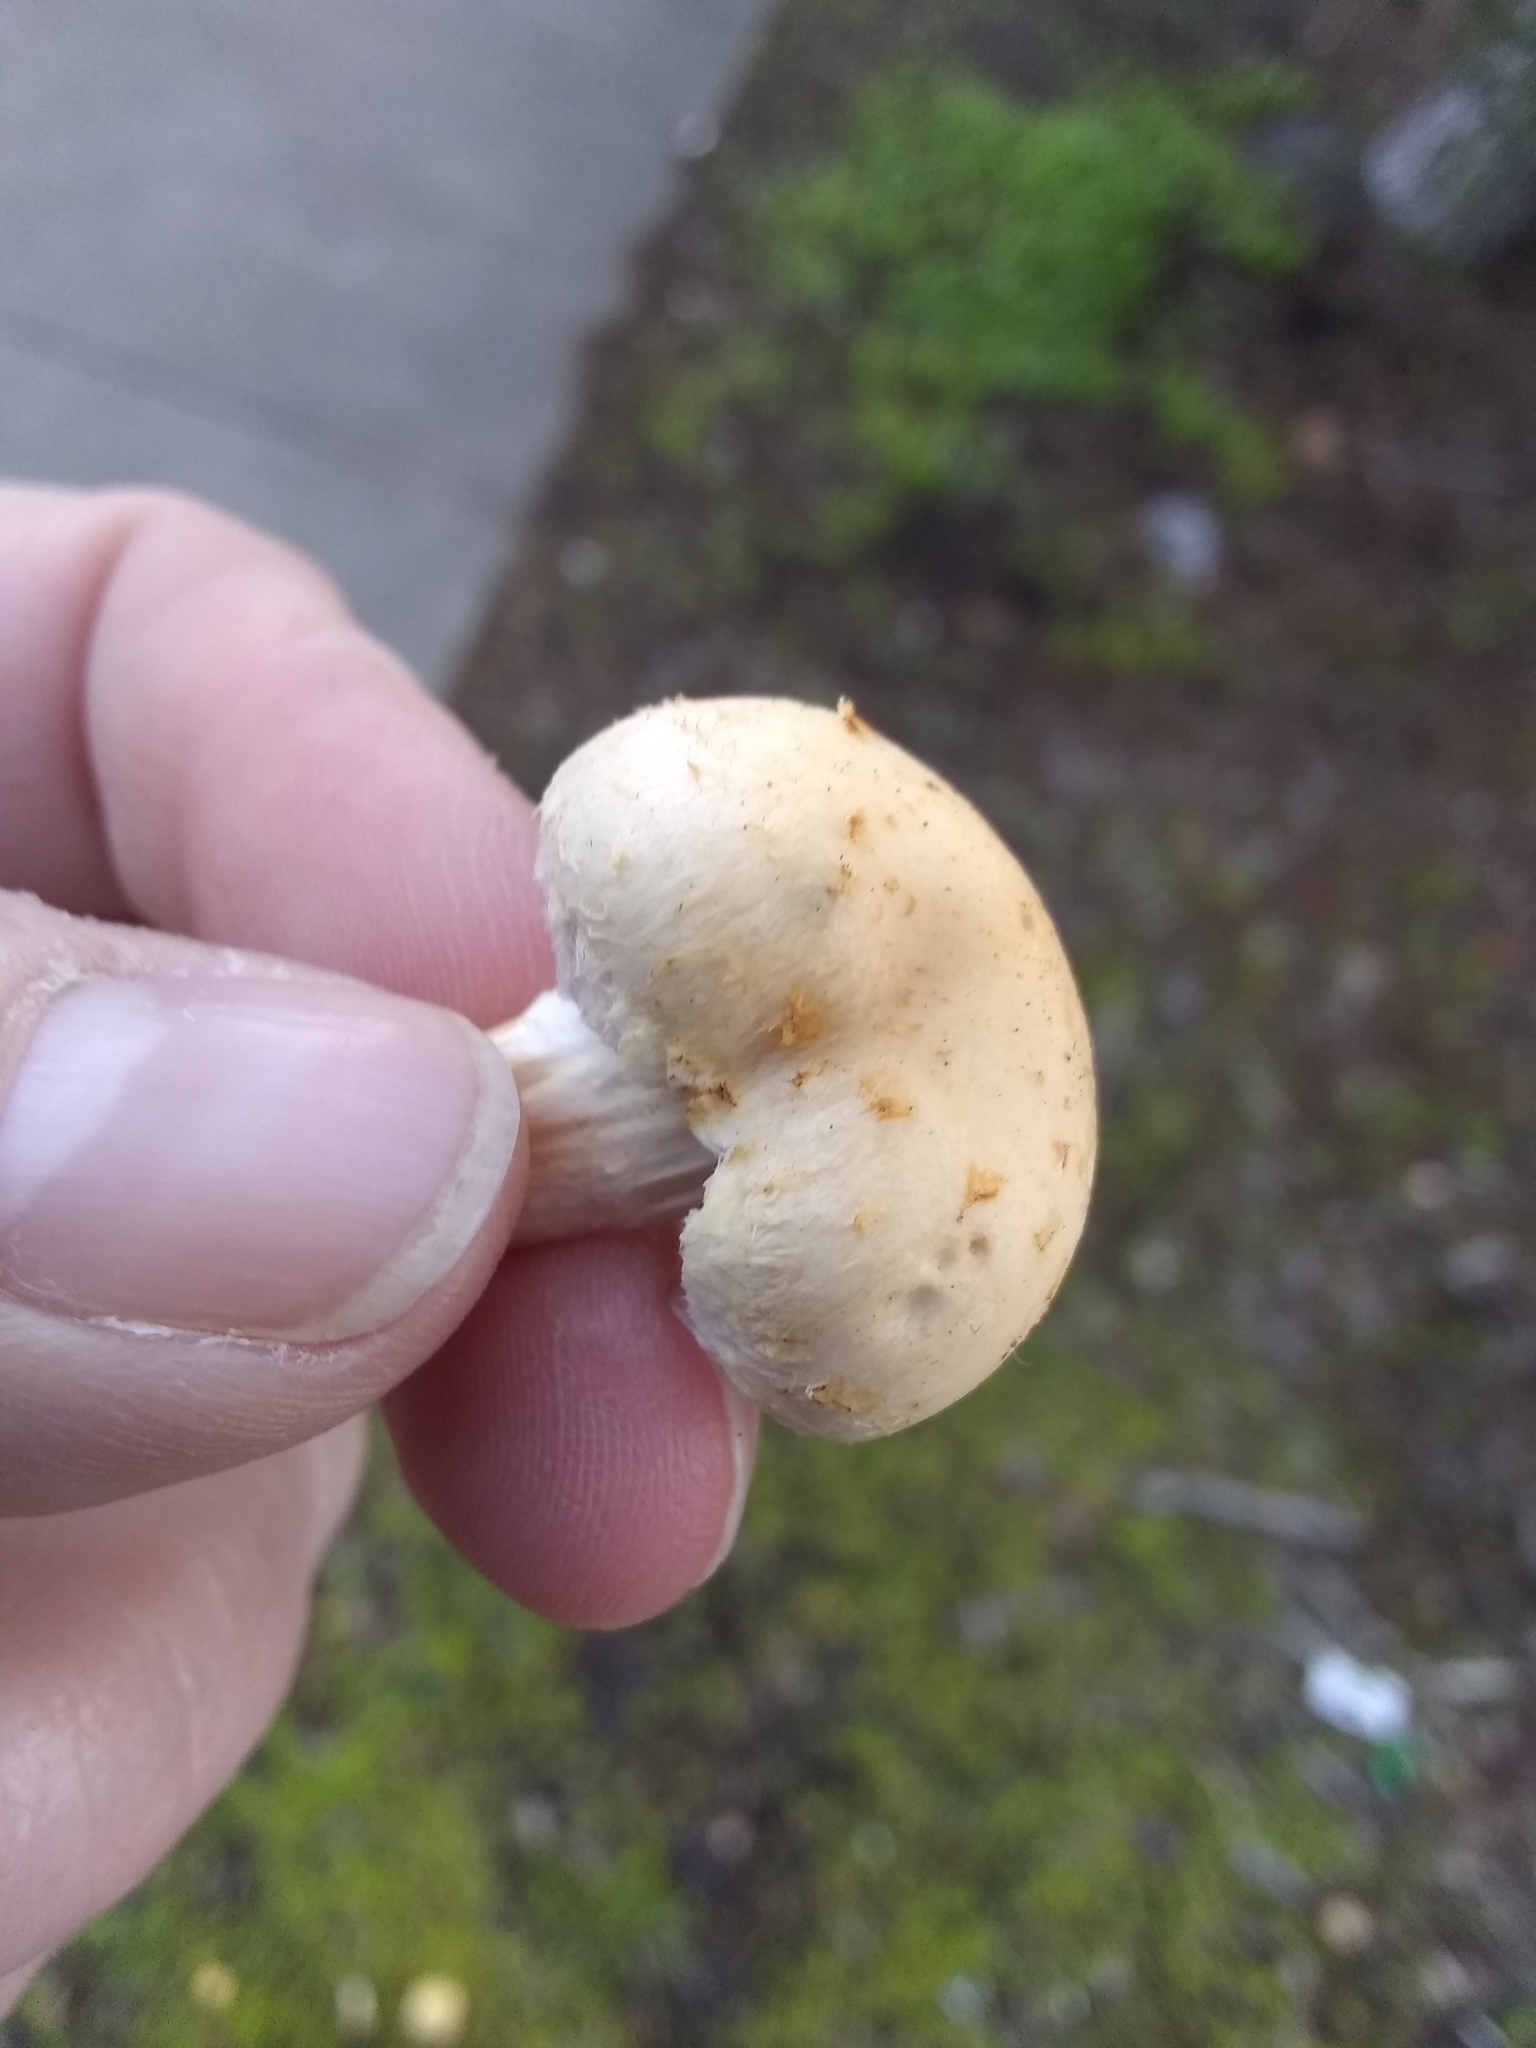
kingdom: Fungi
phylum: Basidiomycota
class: Agaricomycetes
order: Agaricales
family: Strophariaceae
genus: Leratiomyces
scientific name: Leratiomyces percevalii
